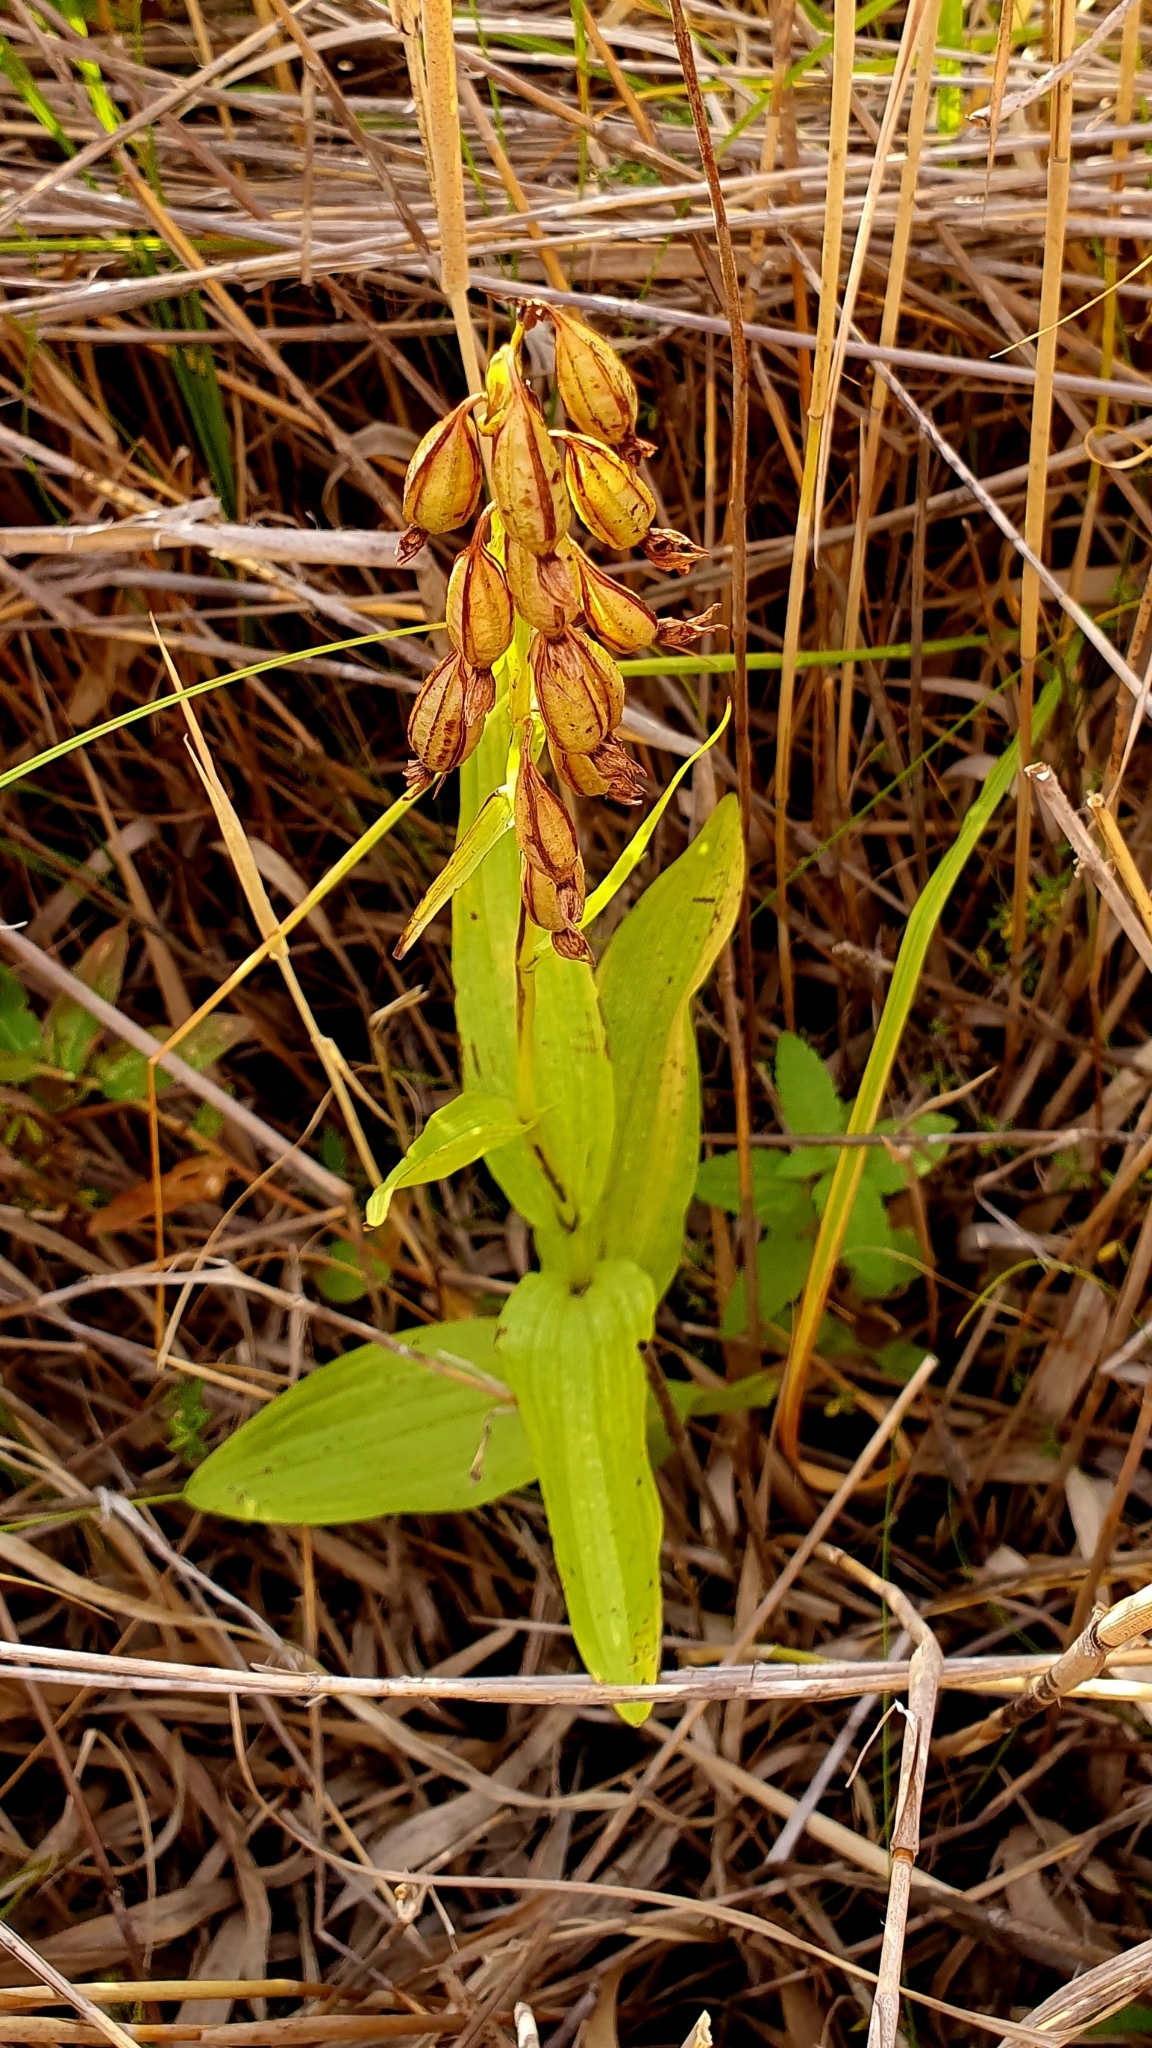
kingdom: Plantae
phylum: Tracheophyta
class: Liliopsida
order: Asparagales
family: Orchidaceae
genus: Epipactis
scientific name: Epipactis palustris
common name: Marsh helleborine
